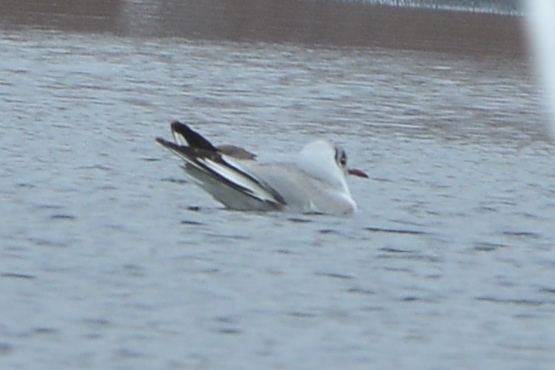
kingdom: Animalia
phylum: Chordata
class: Aves
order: Charadriiformes
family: Laridae
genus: Chroicocephalus
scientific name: Chroicocephalus ridibundus
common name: Black-headed gull
